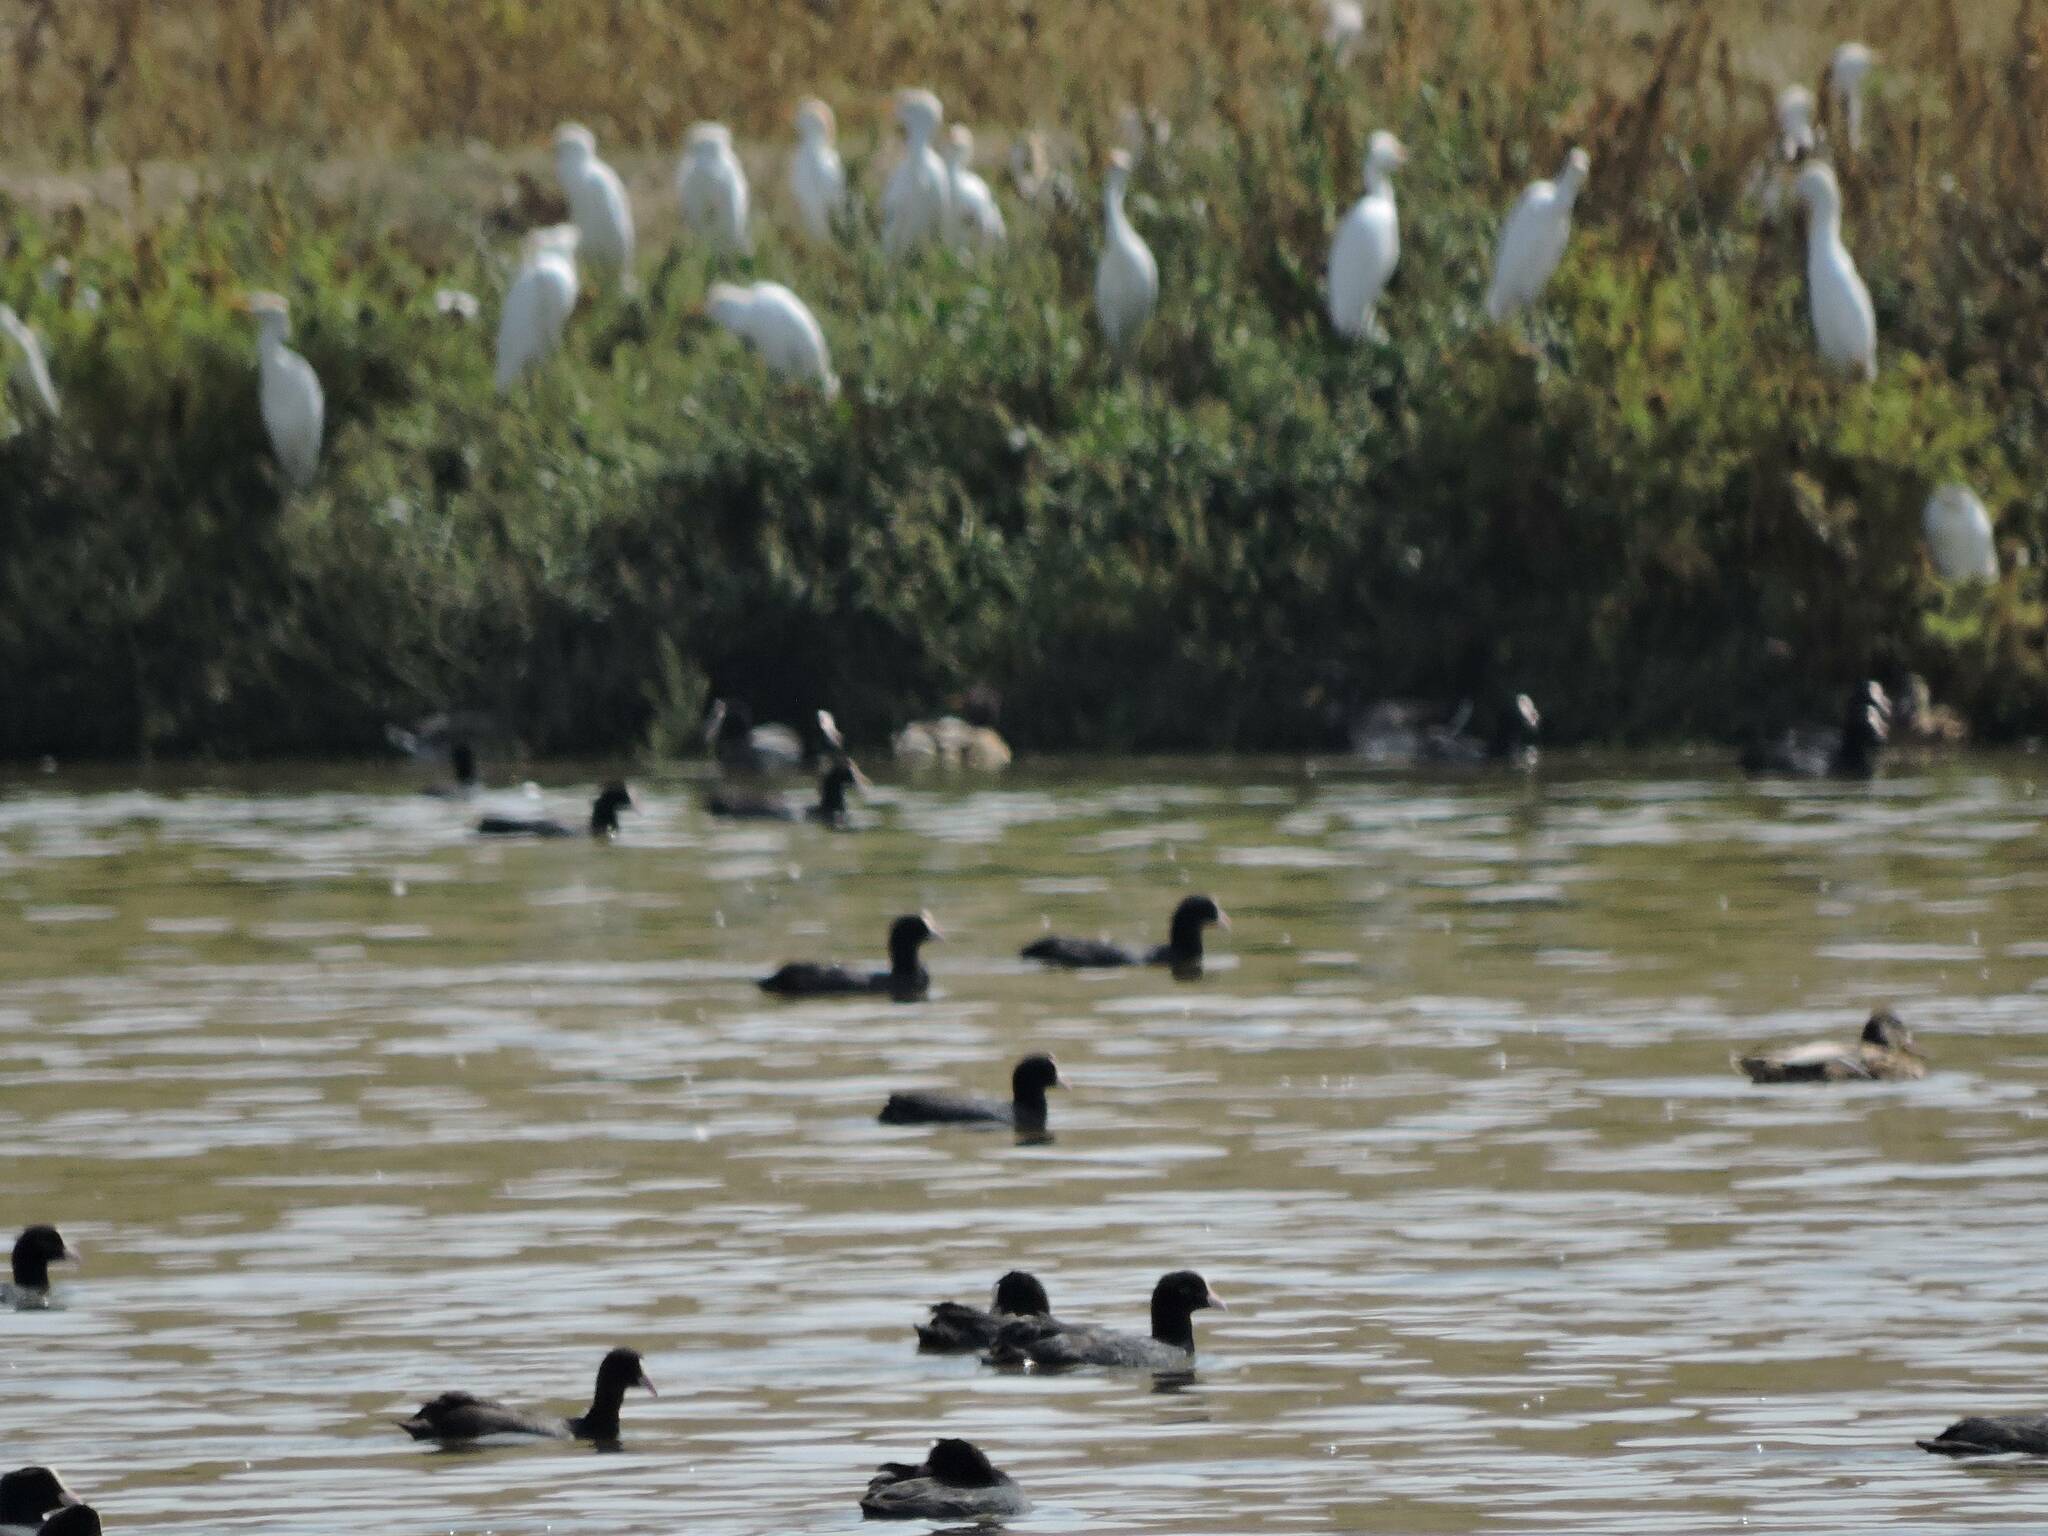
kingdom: Animalia
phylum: Chordata
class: Aves
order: Gruiformes
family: Rallidae
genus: Fulica
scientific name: Fulica atra
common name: Eurasian coot
